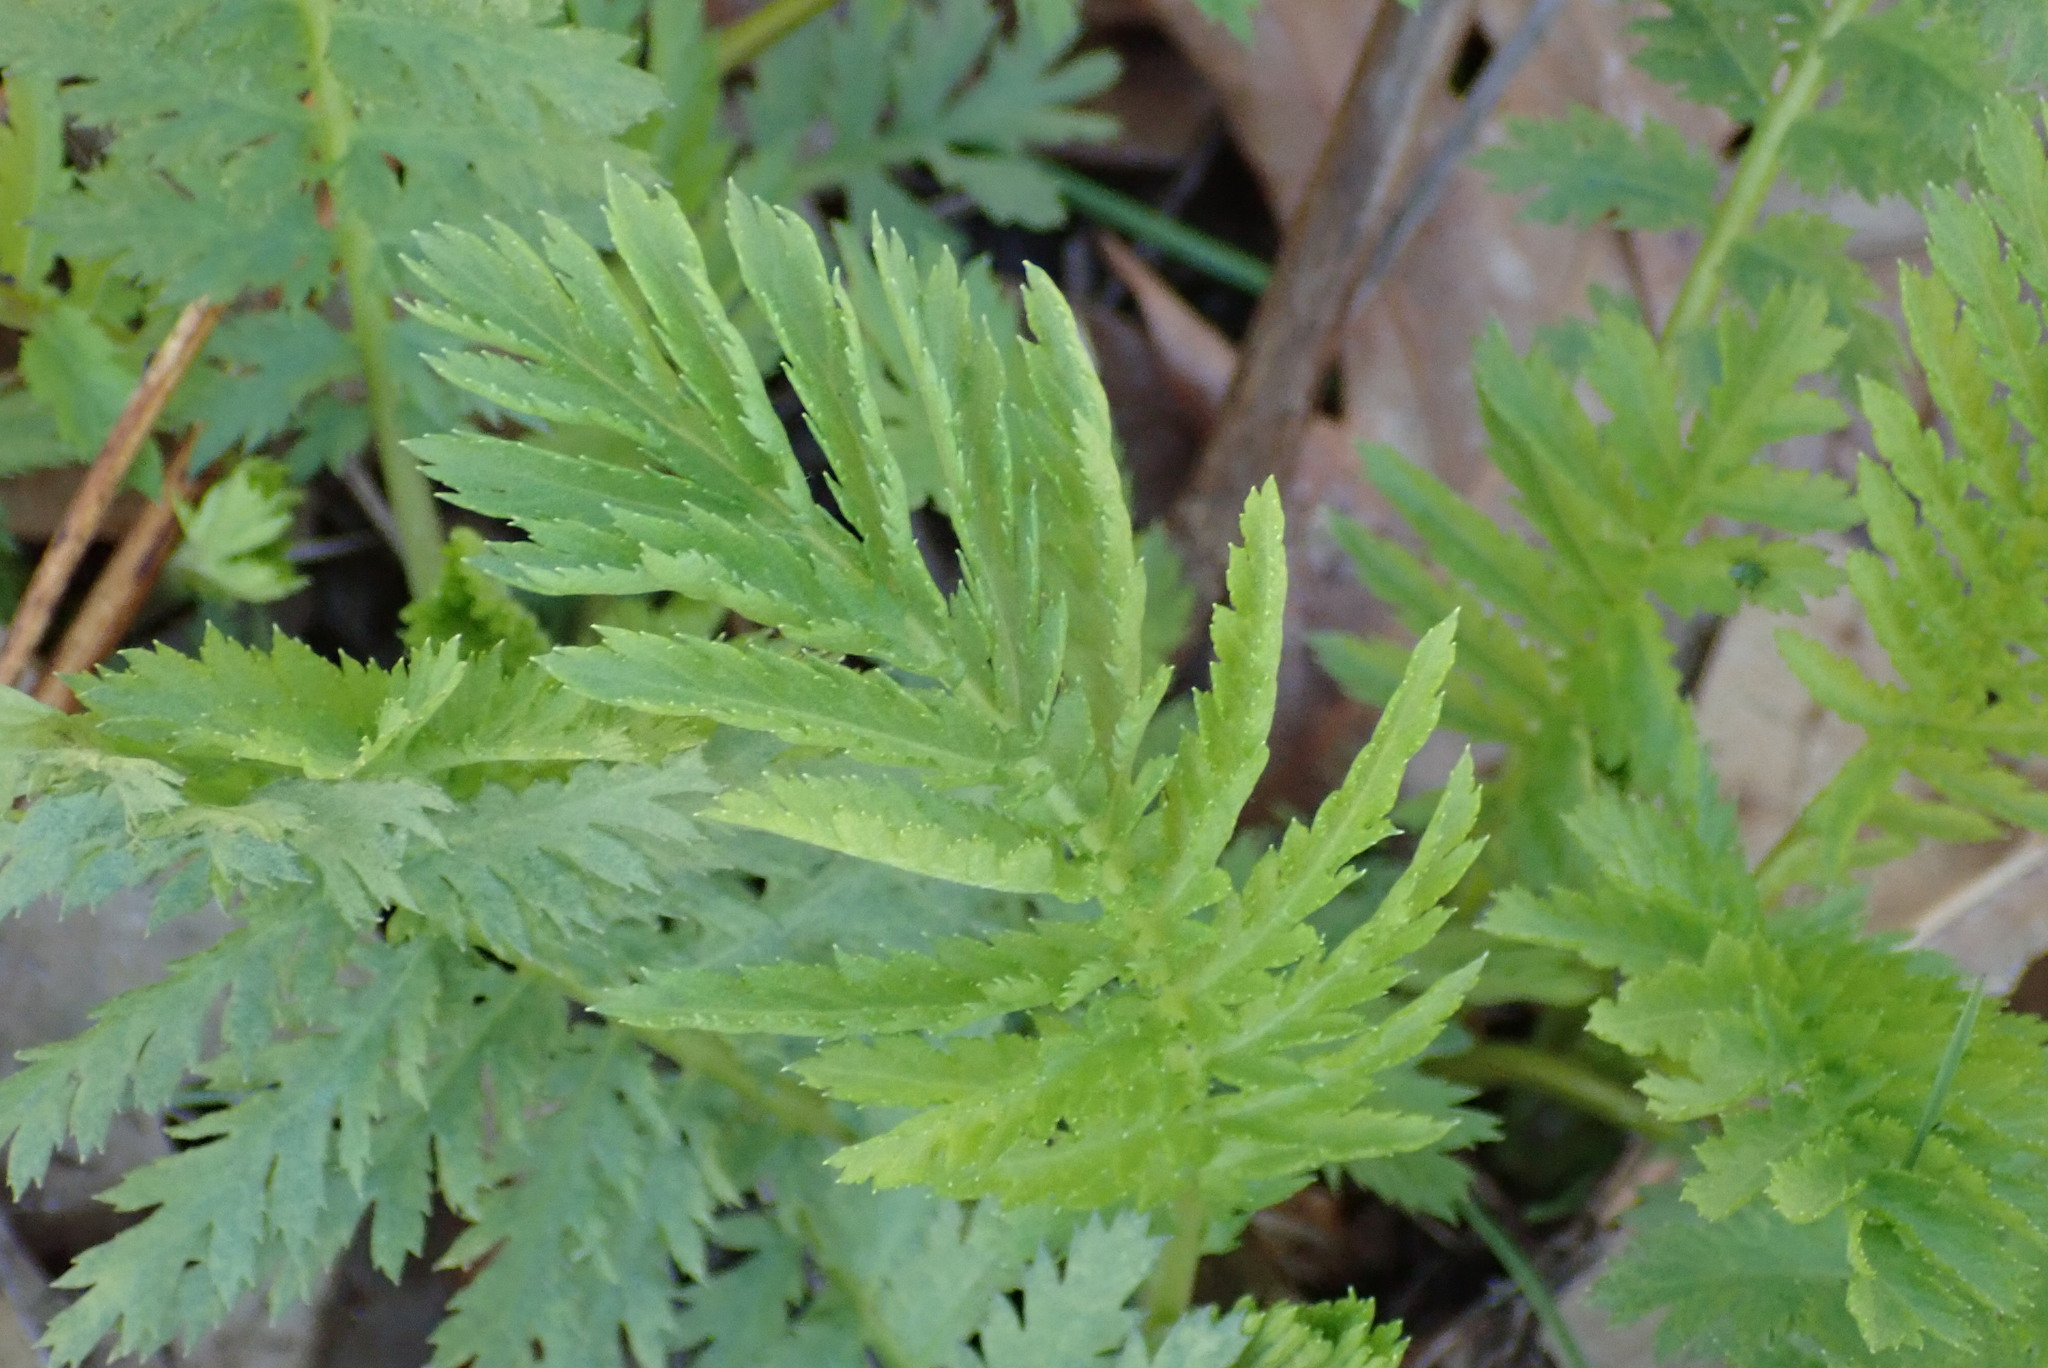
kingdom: Plantae
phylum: Tracheophyta
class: Magnoliopsida
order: Asterales
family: Asteraceae
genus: Tanacetum
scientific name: Tanacetum vulgare
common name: Common tansy
